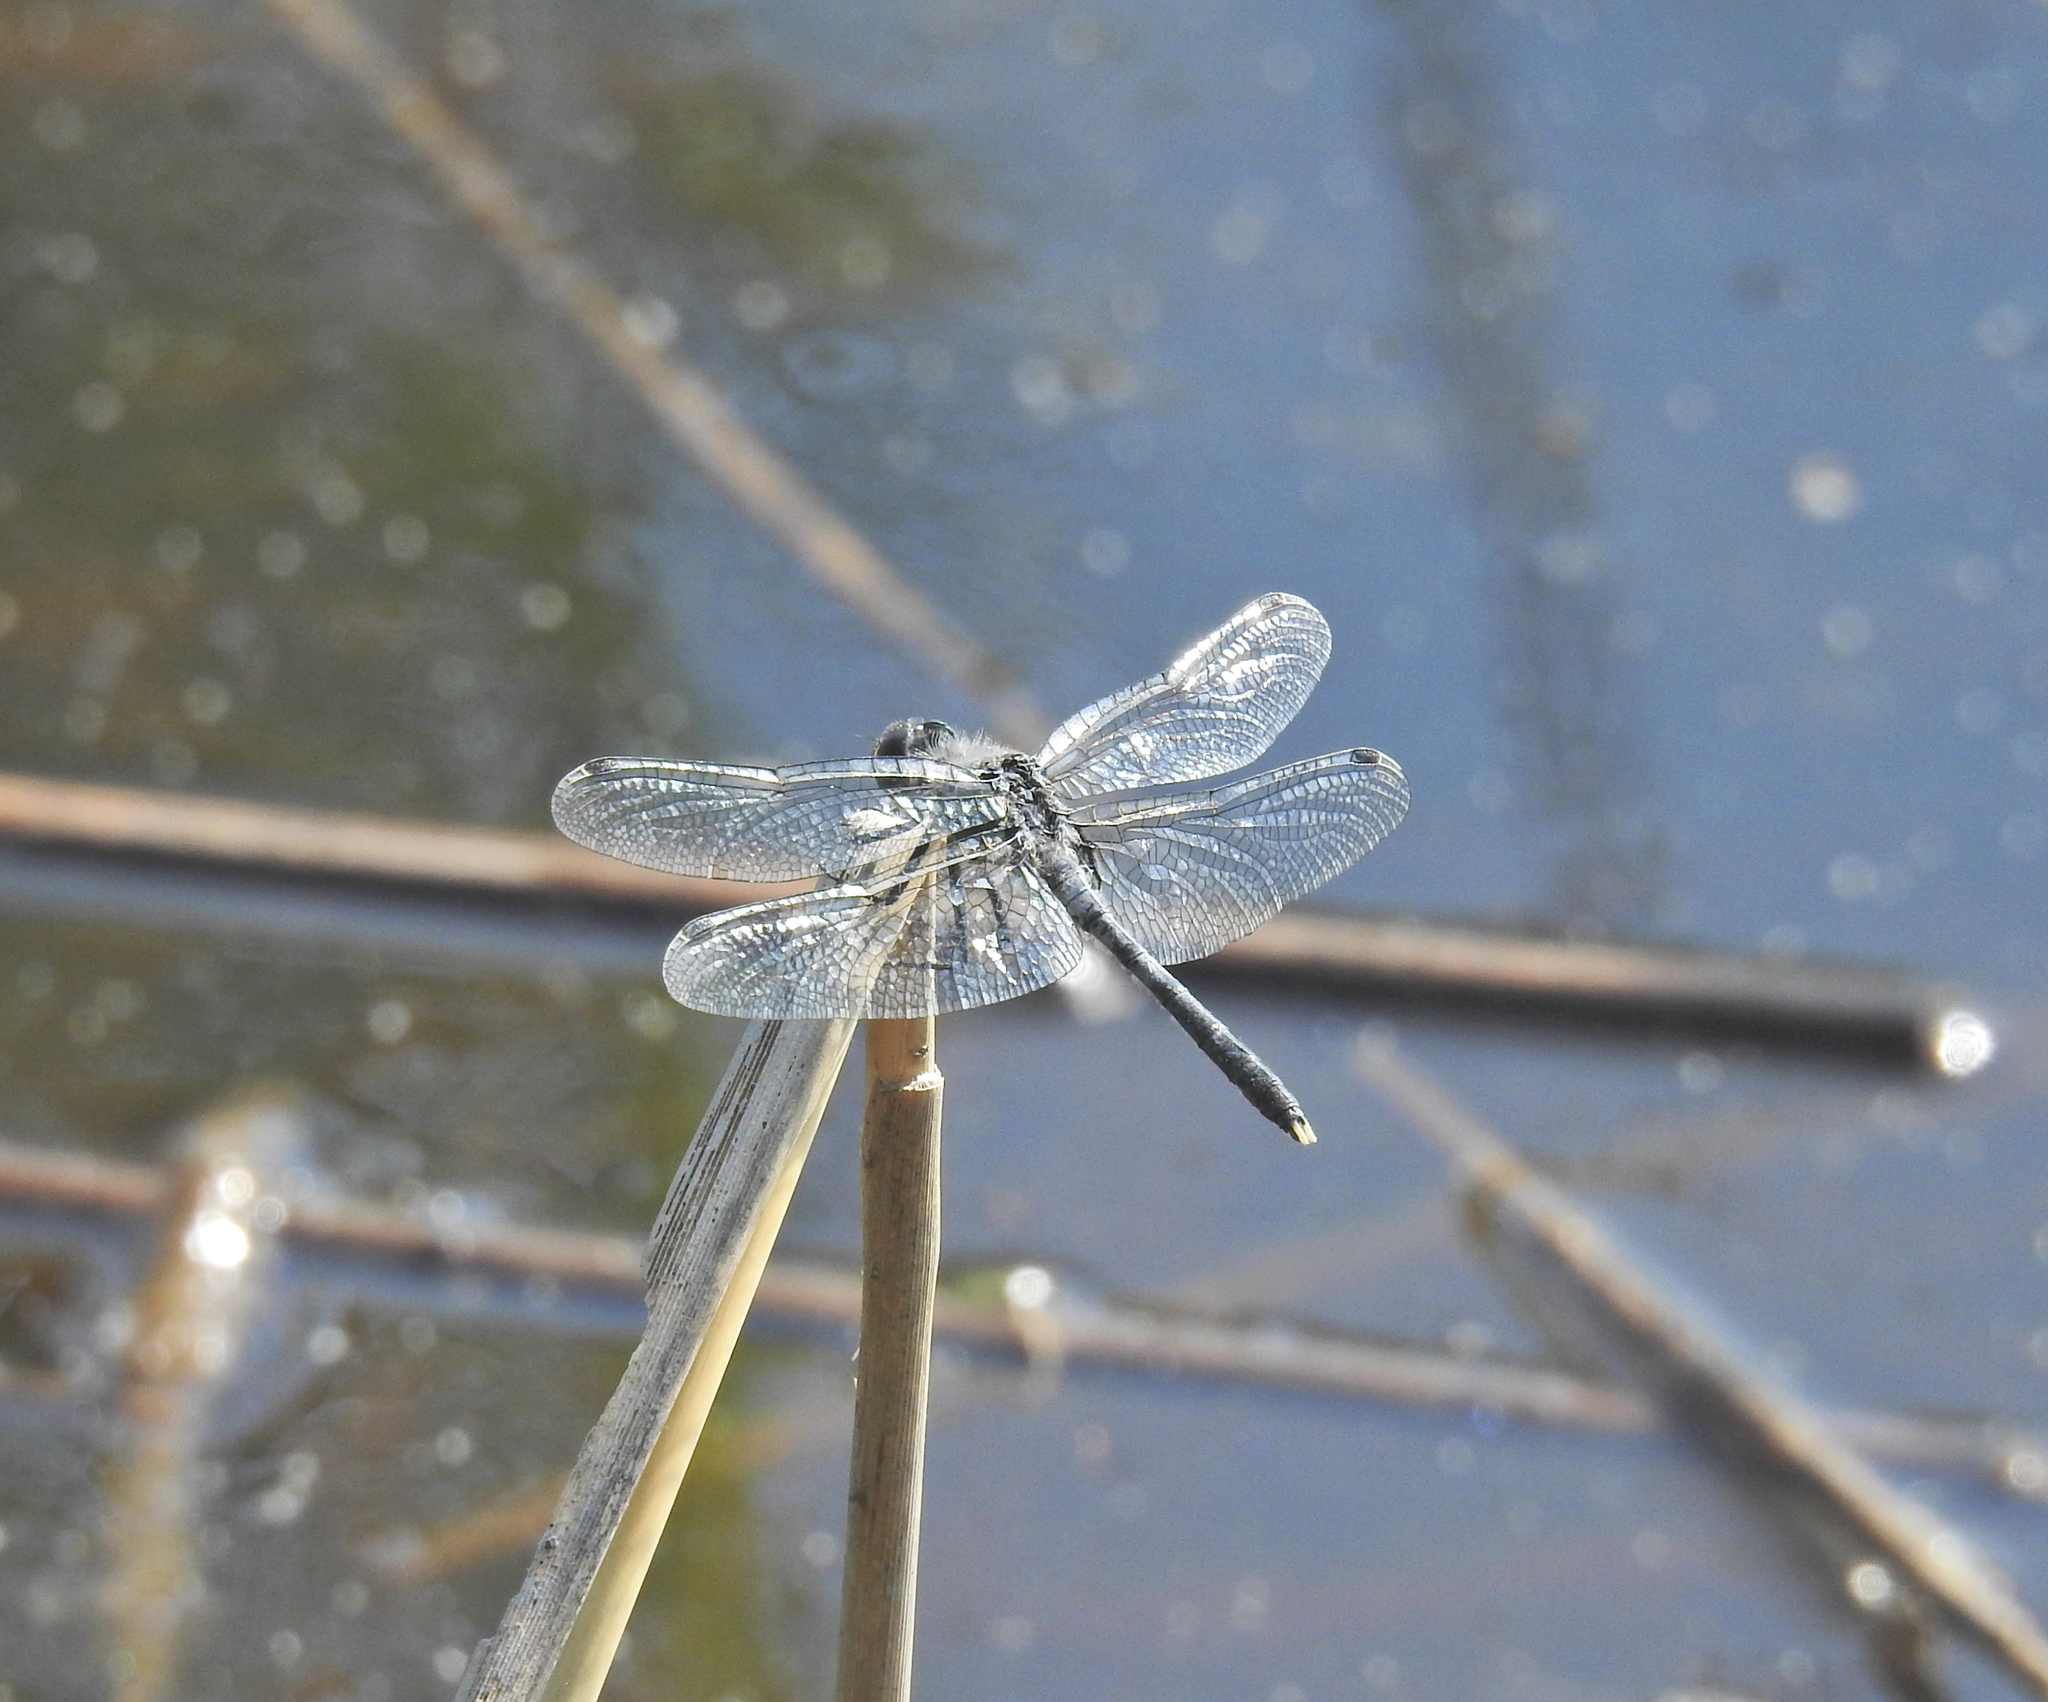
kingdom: Animalia
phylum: Arthropoda
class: Insecta
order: Odonata
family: Libellulidae
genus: Leucorrhinia
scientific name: Leucorrhinia albifrons
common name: Dark whiteface
